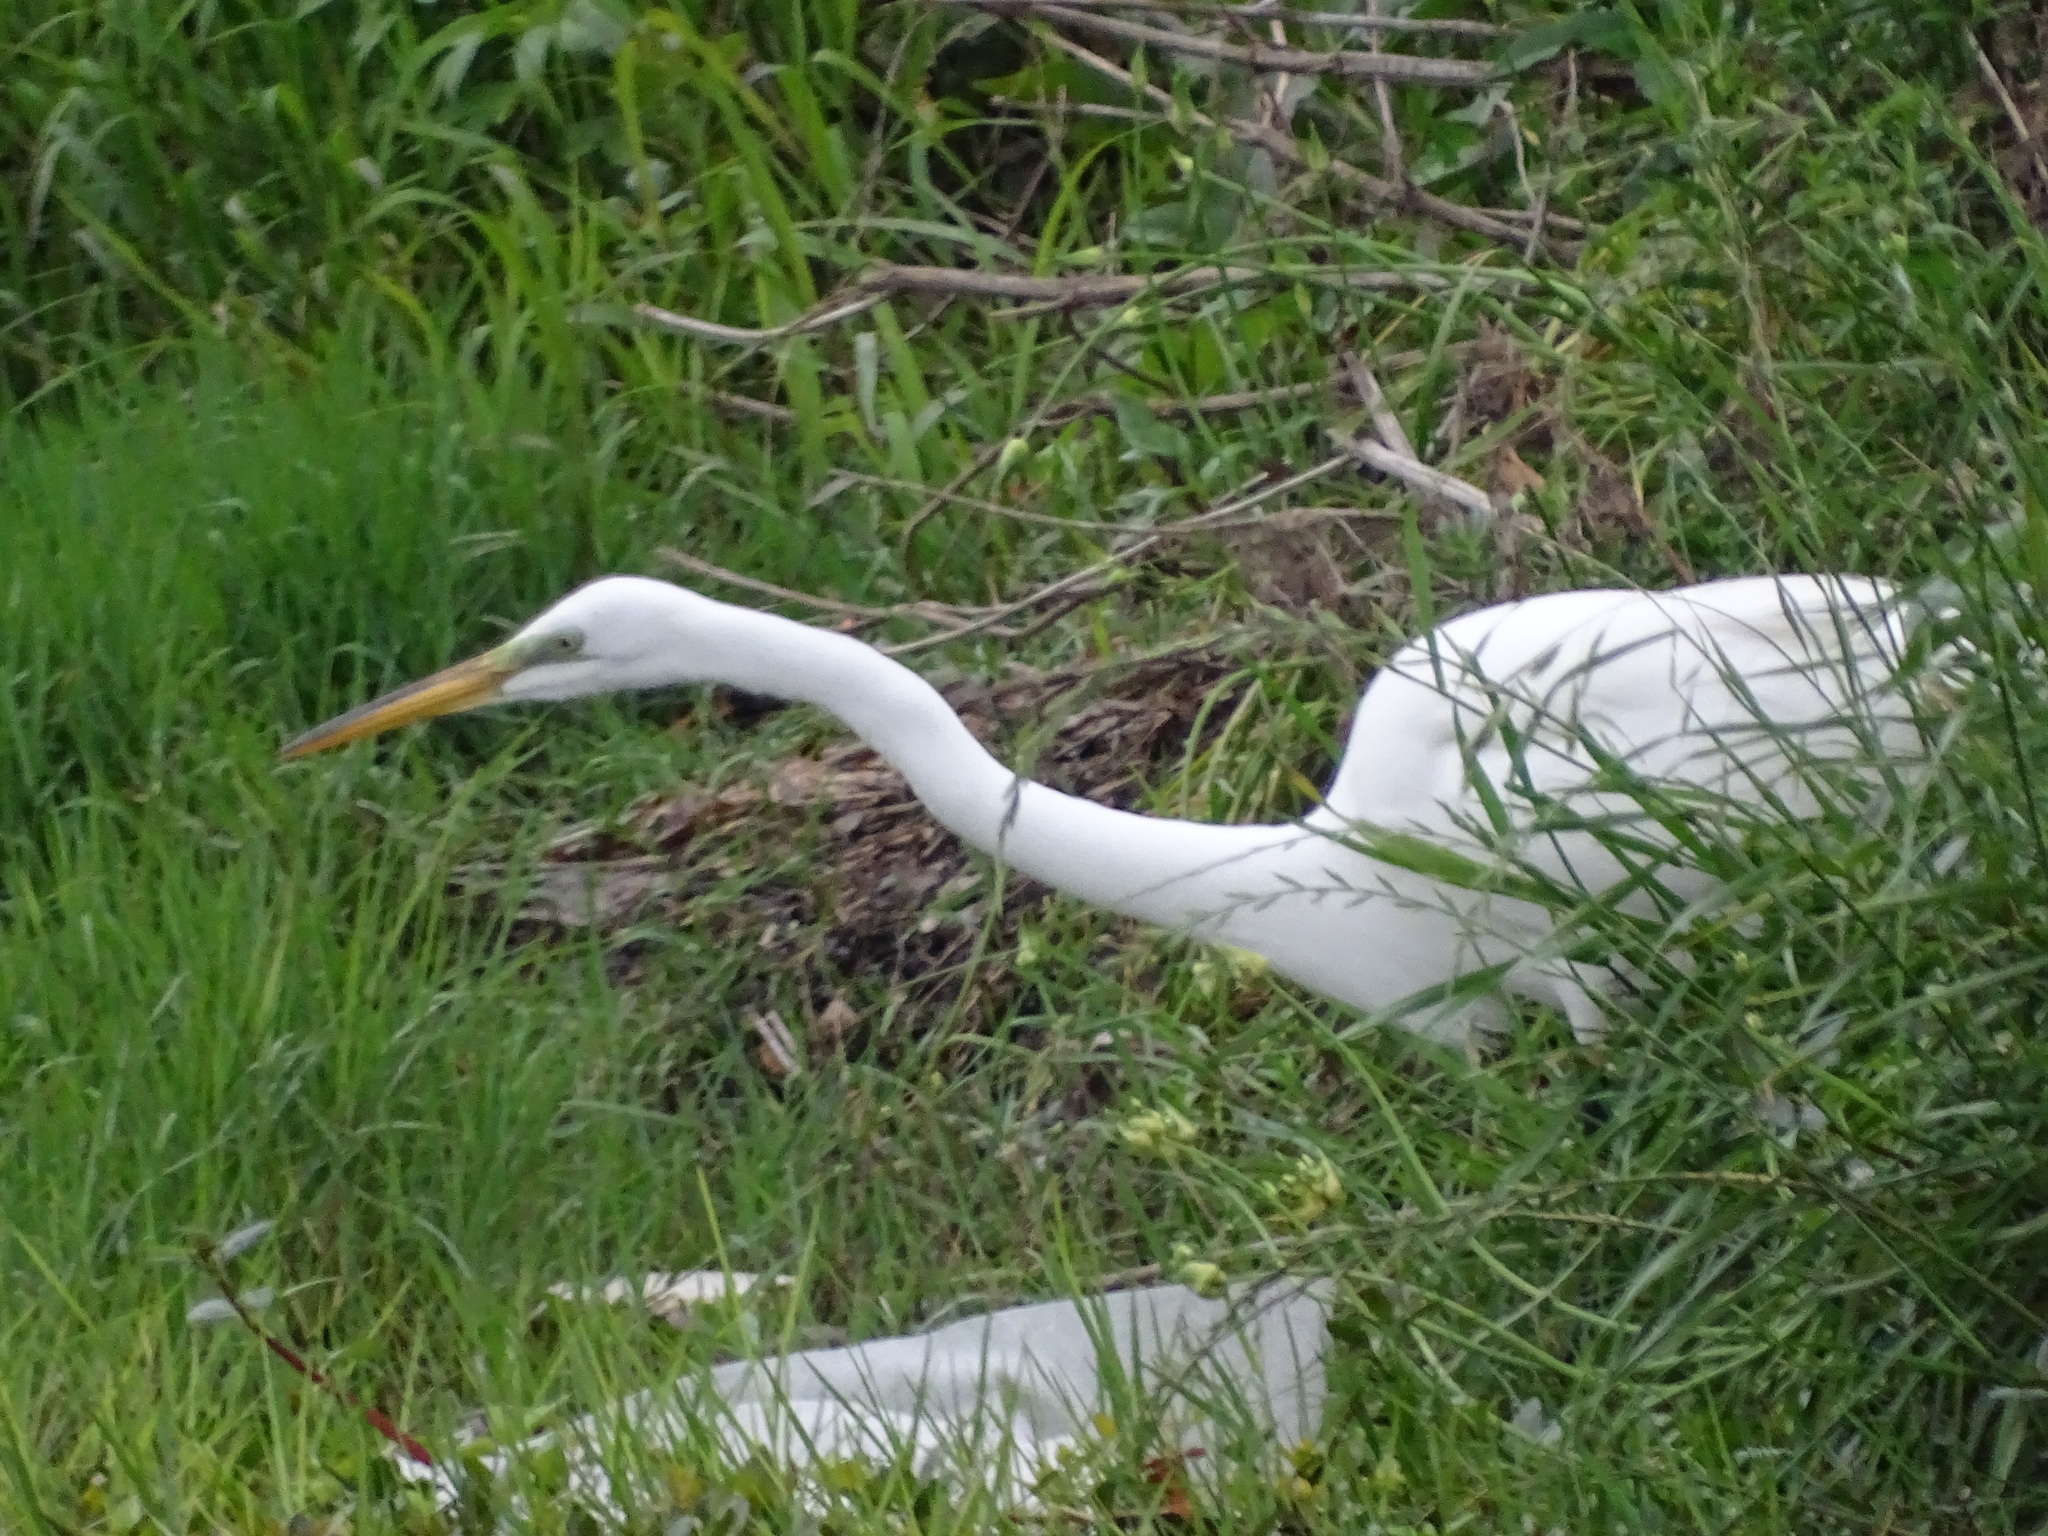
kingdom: Animalia
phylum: Chordata
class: Aves
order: Pelecaniformes
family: Ardeidae
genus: Ardea
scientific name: Ardea alba
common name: Great egret
